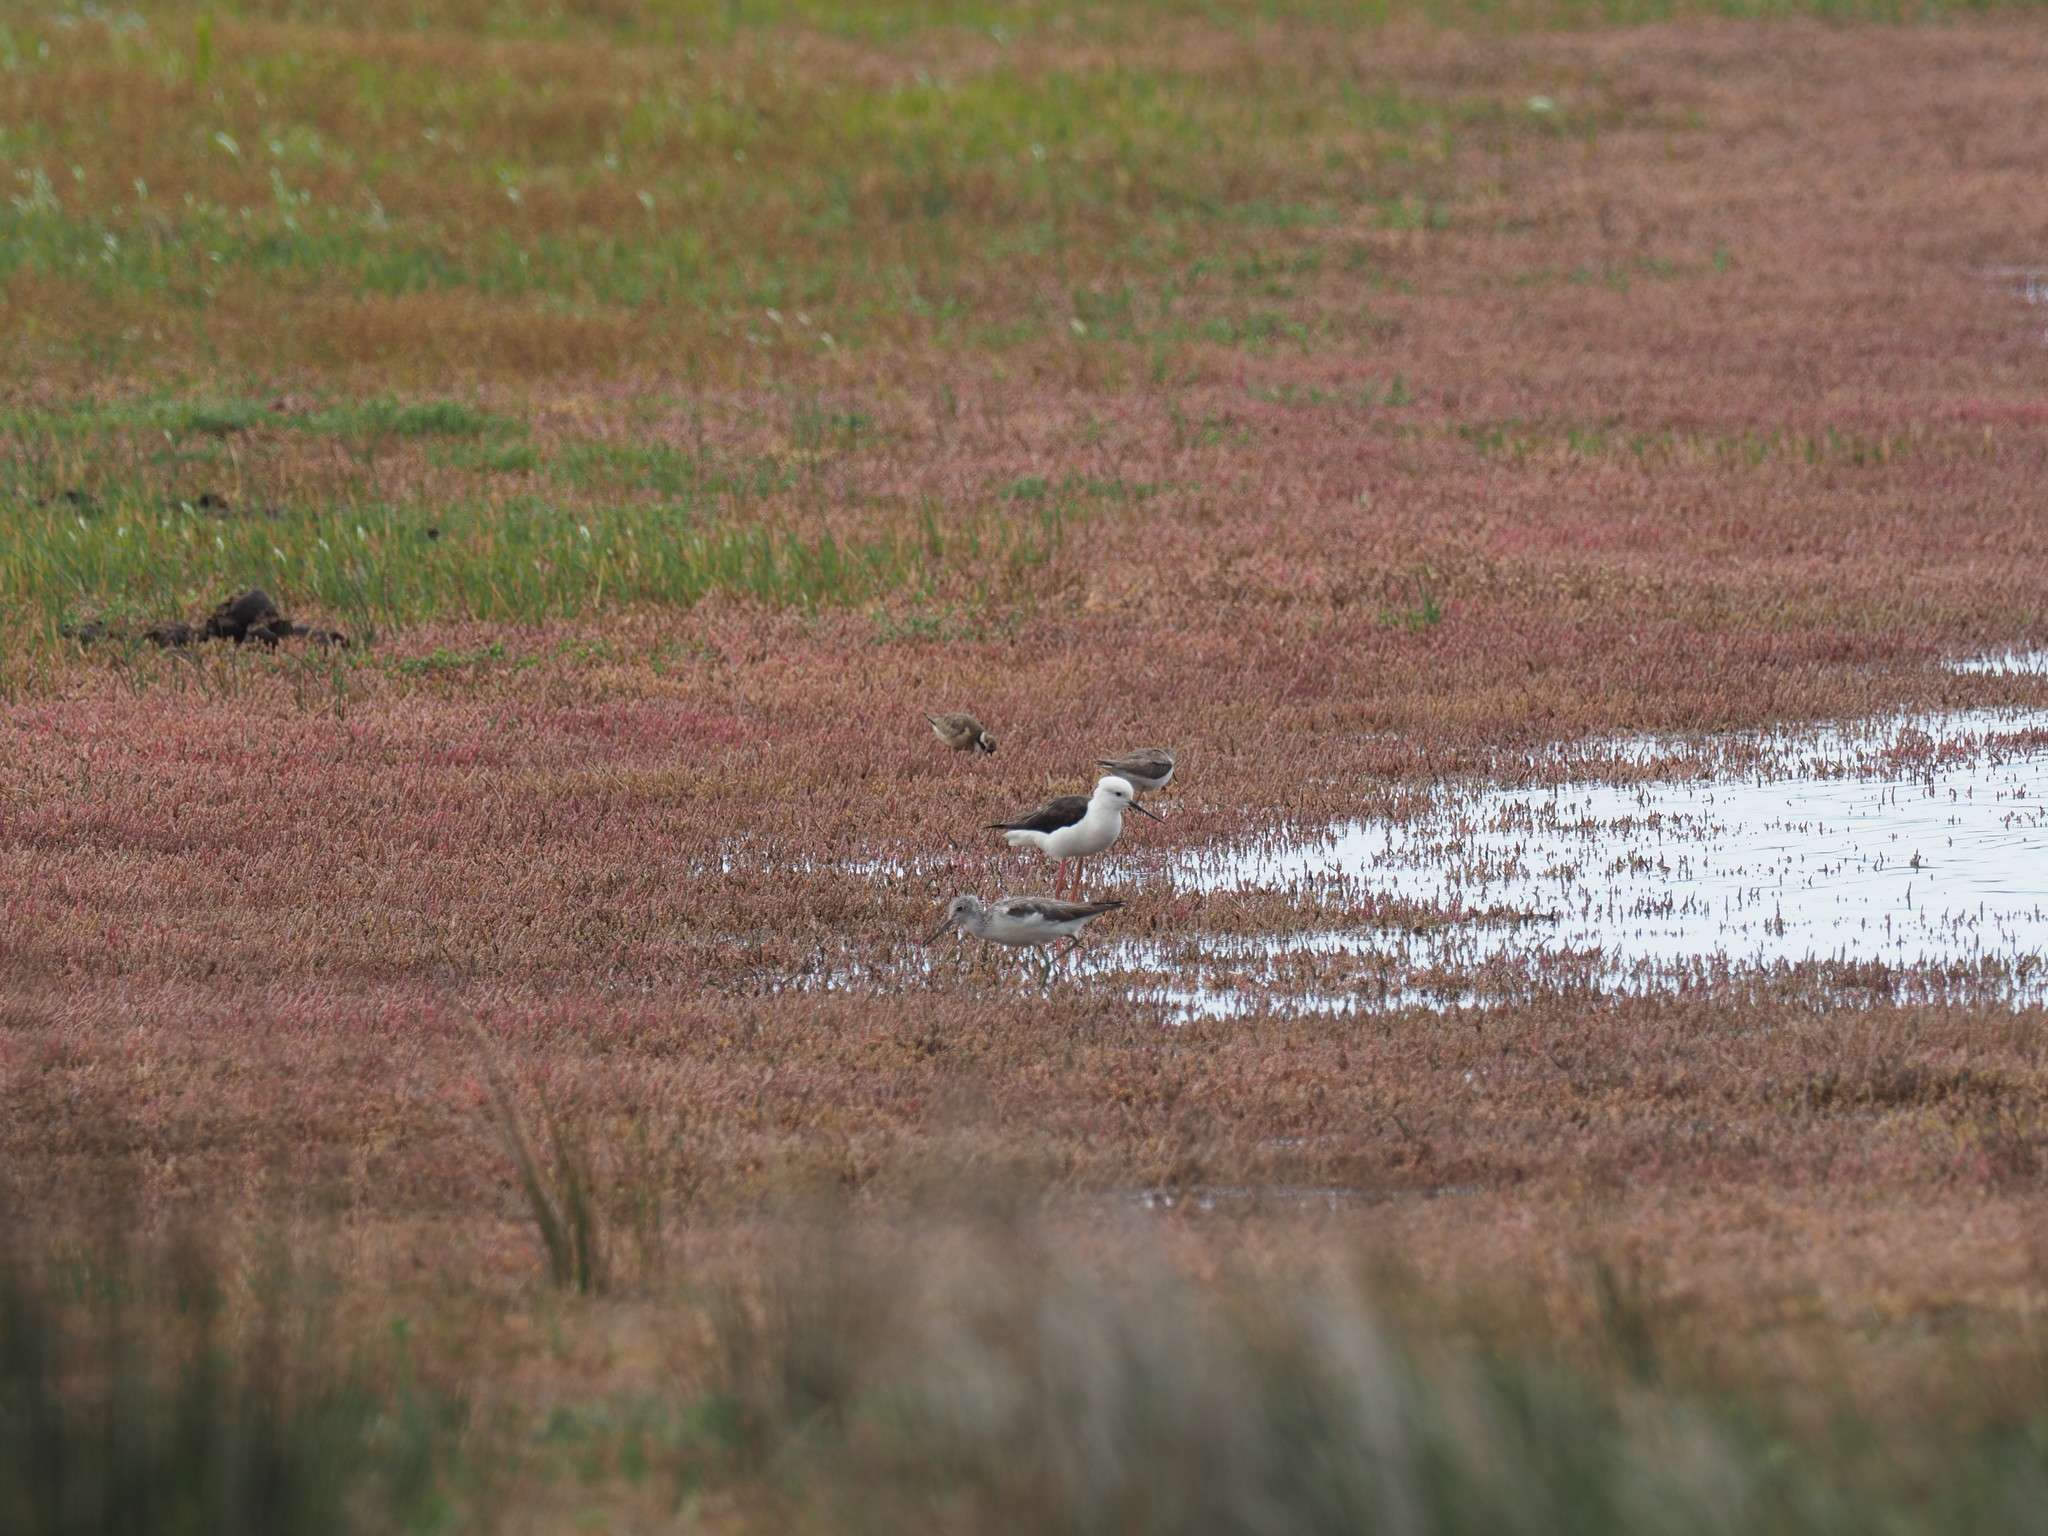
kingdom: Animalia
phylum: Chordata
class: Aves
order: Charadriiformes
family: Scolopacidae
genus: Tringa
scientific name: Tringa nebularia
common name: Common greenshank
